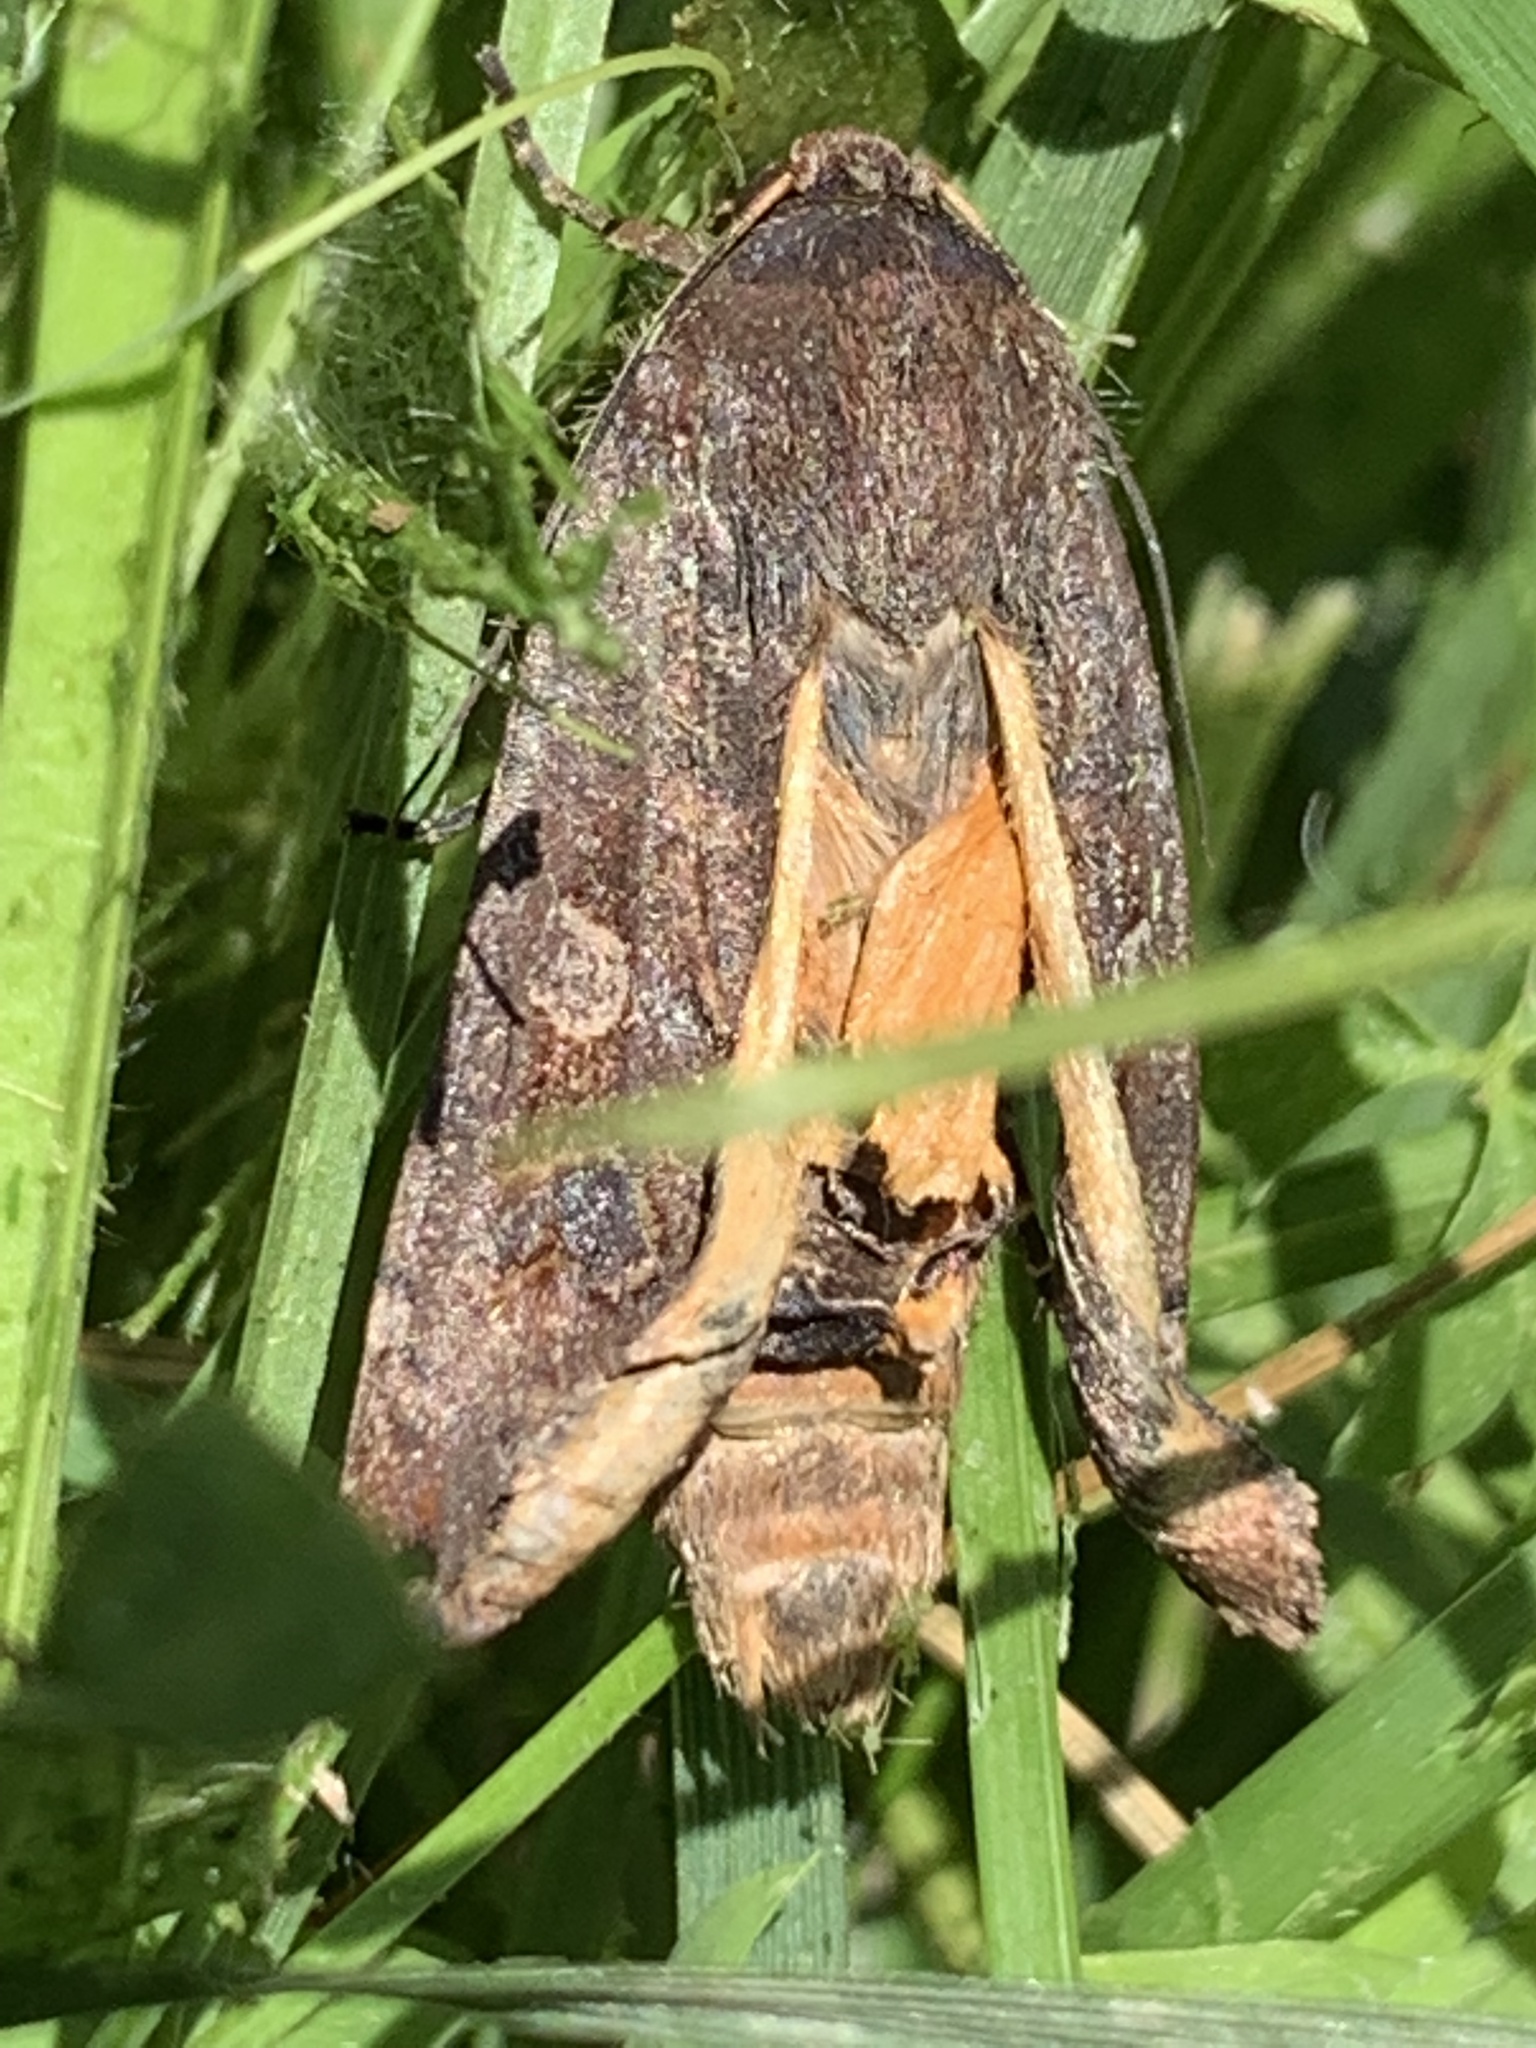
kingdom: Animalia
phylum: Arthropoda
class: Insecta
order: Lepidoptera
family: Noctuidae
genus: Noctua
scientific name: Noctua pronuba
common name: Large yellow underwing
